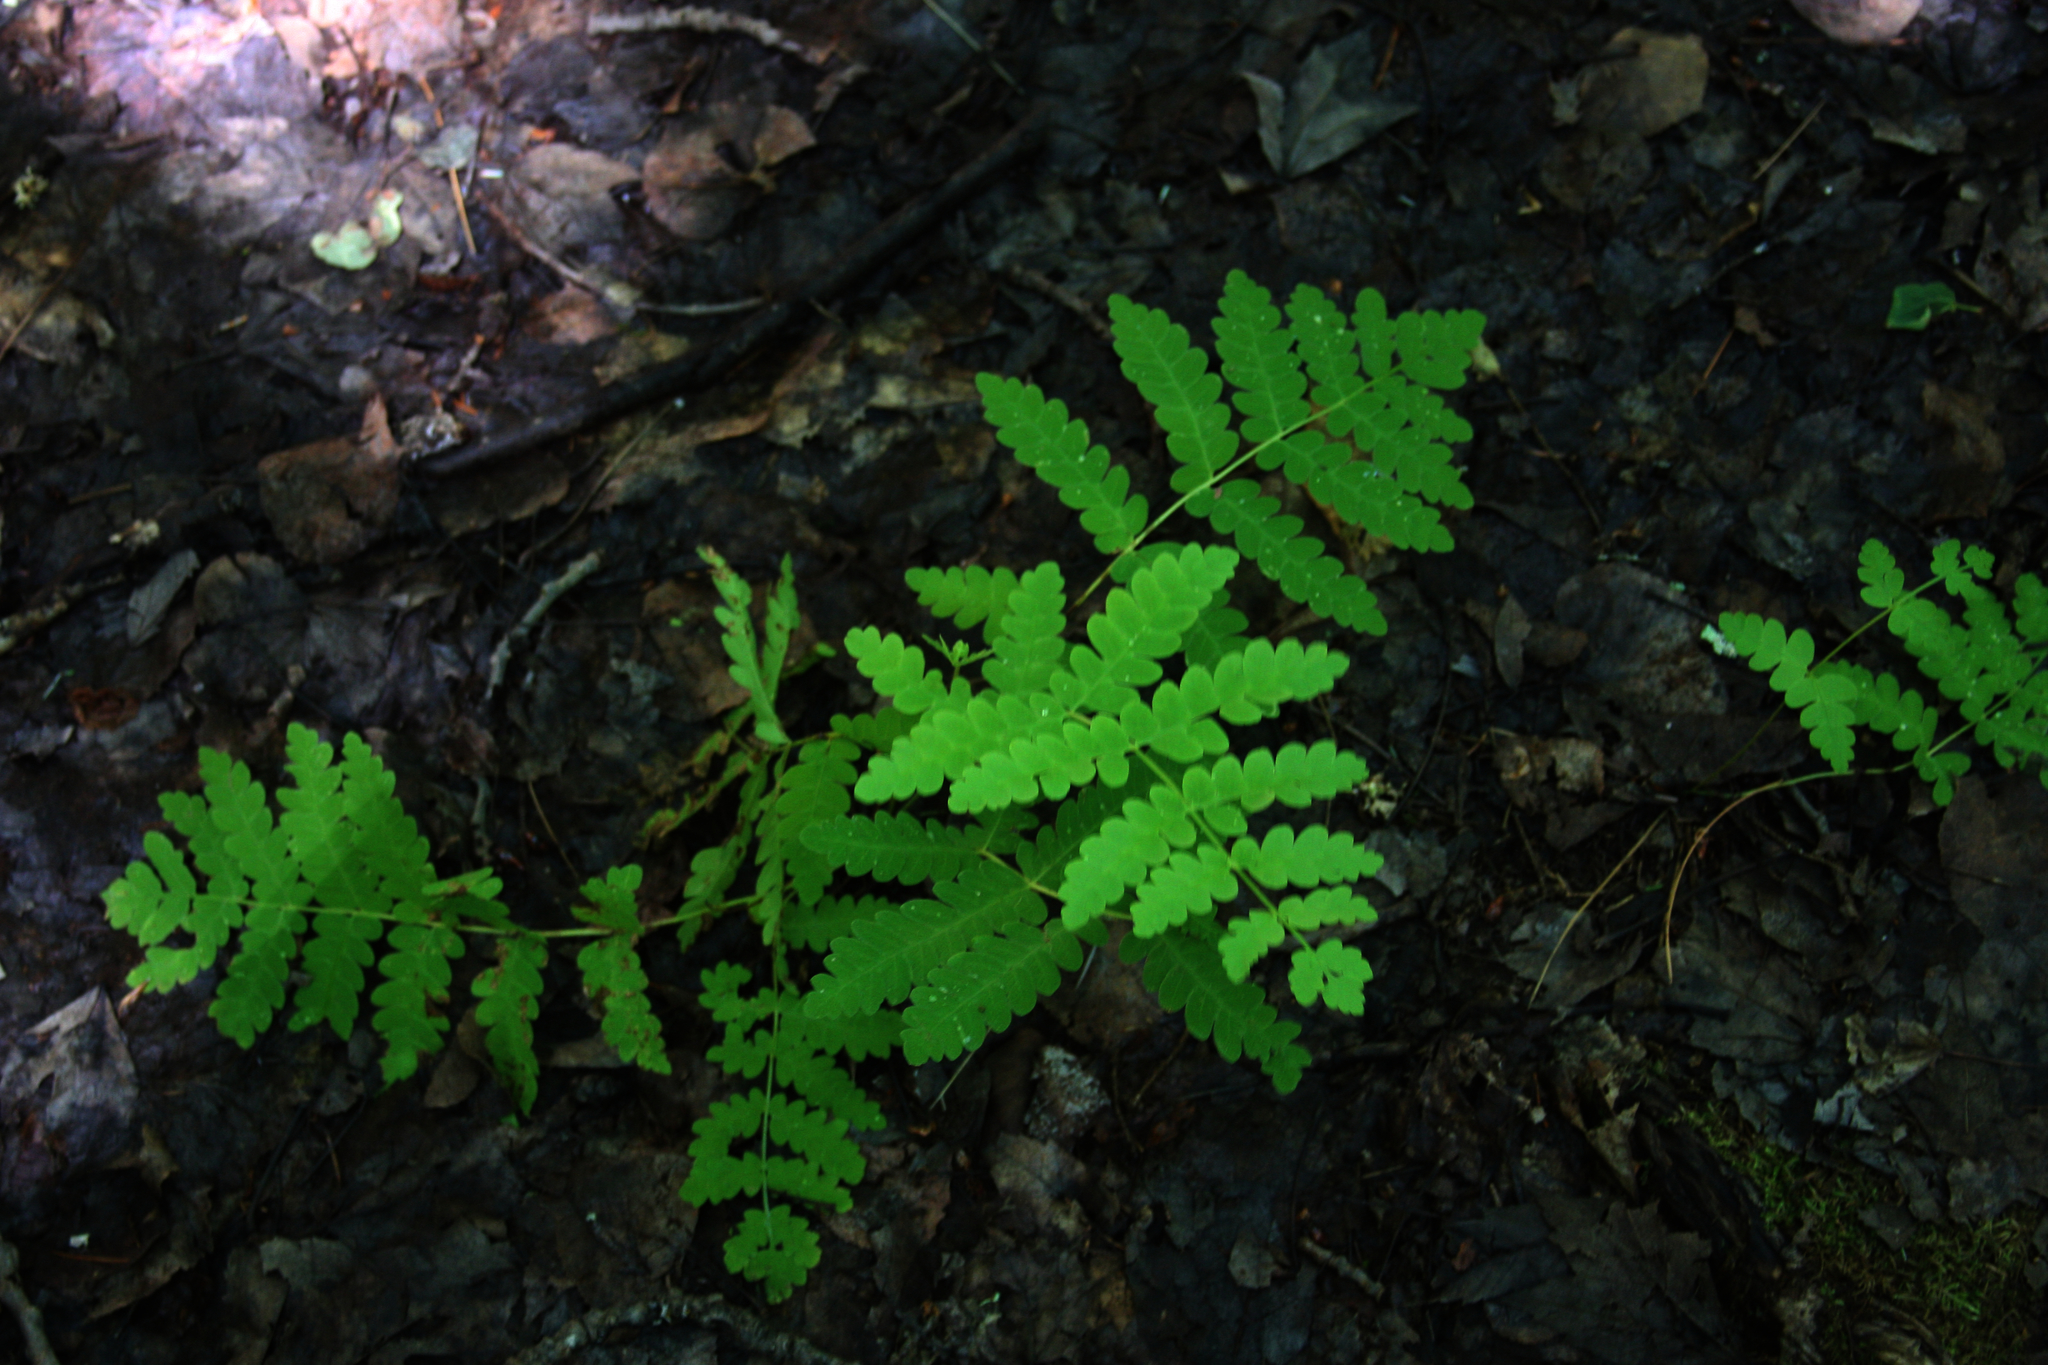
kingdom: Plantae
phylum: Tracheophyta
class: Polypodiopsida
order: Osmundales
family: Osmundaceae
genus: Claytosmunda
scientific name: Claytosmunda claytoniana
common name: Clayton's fern
